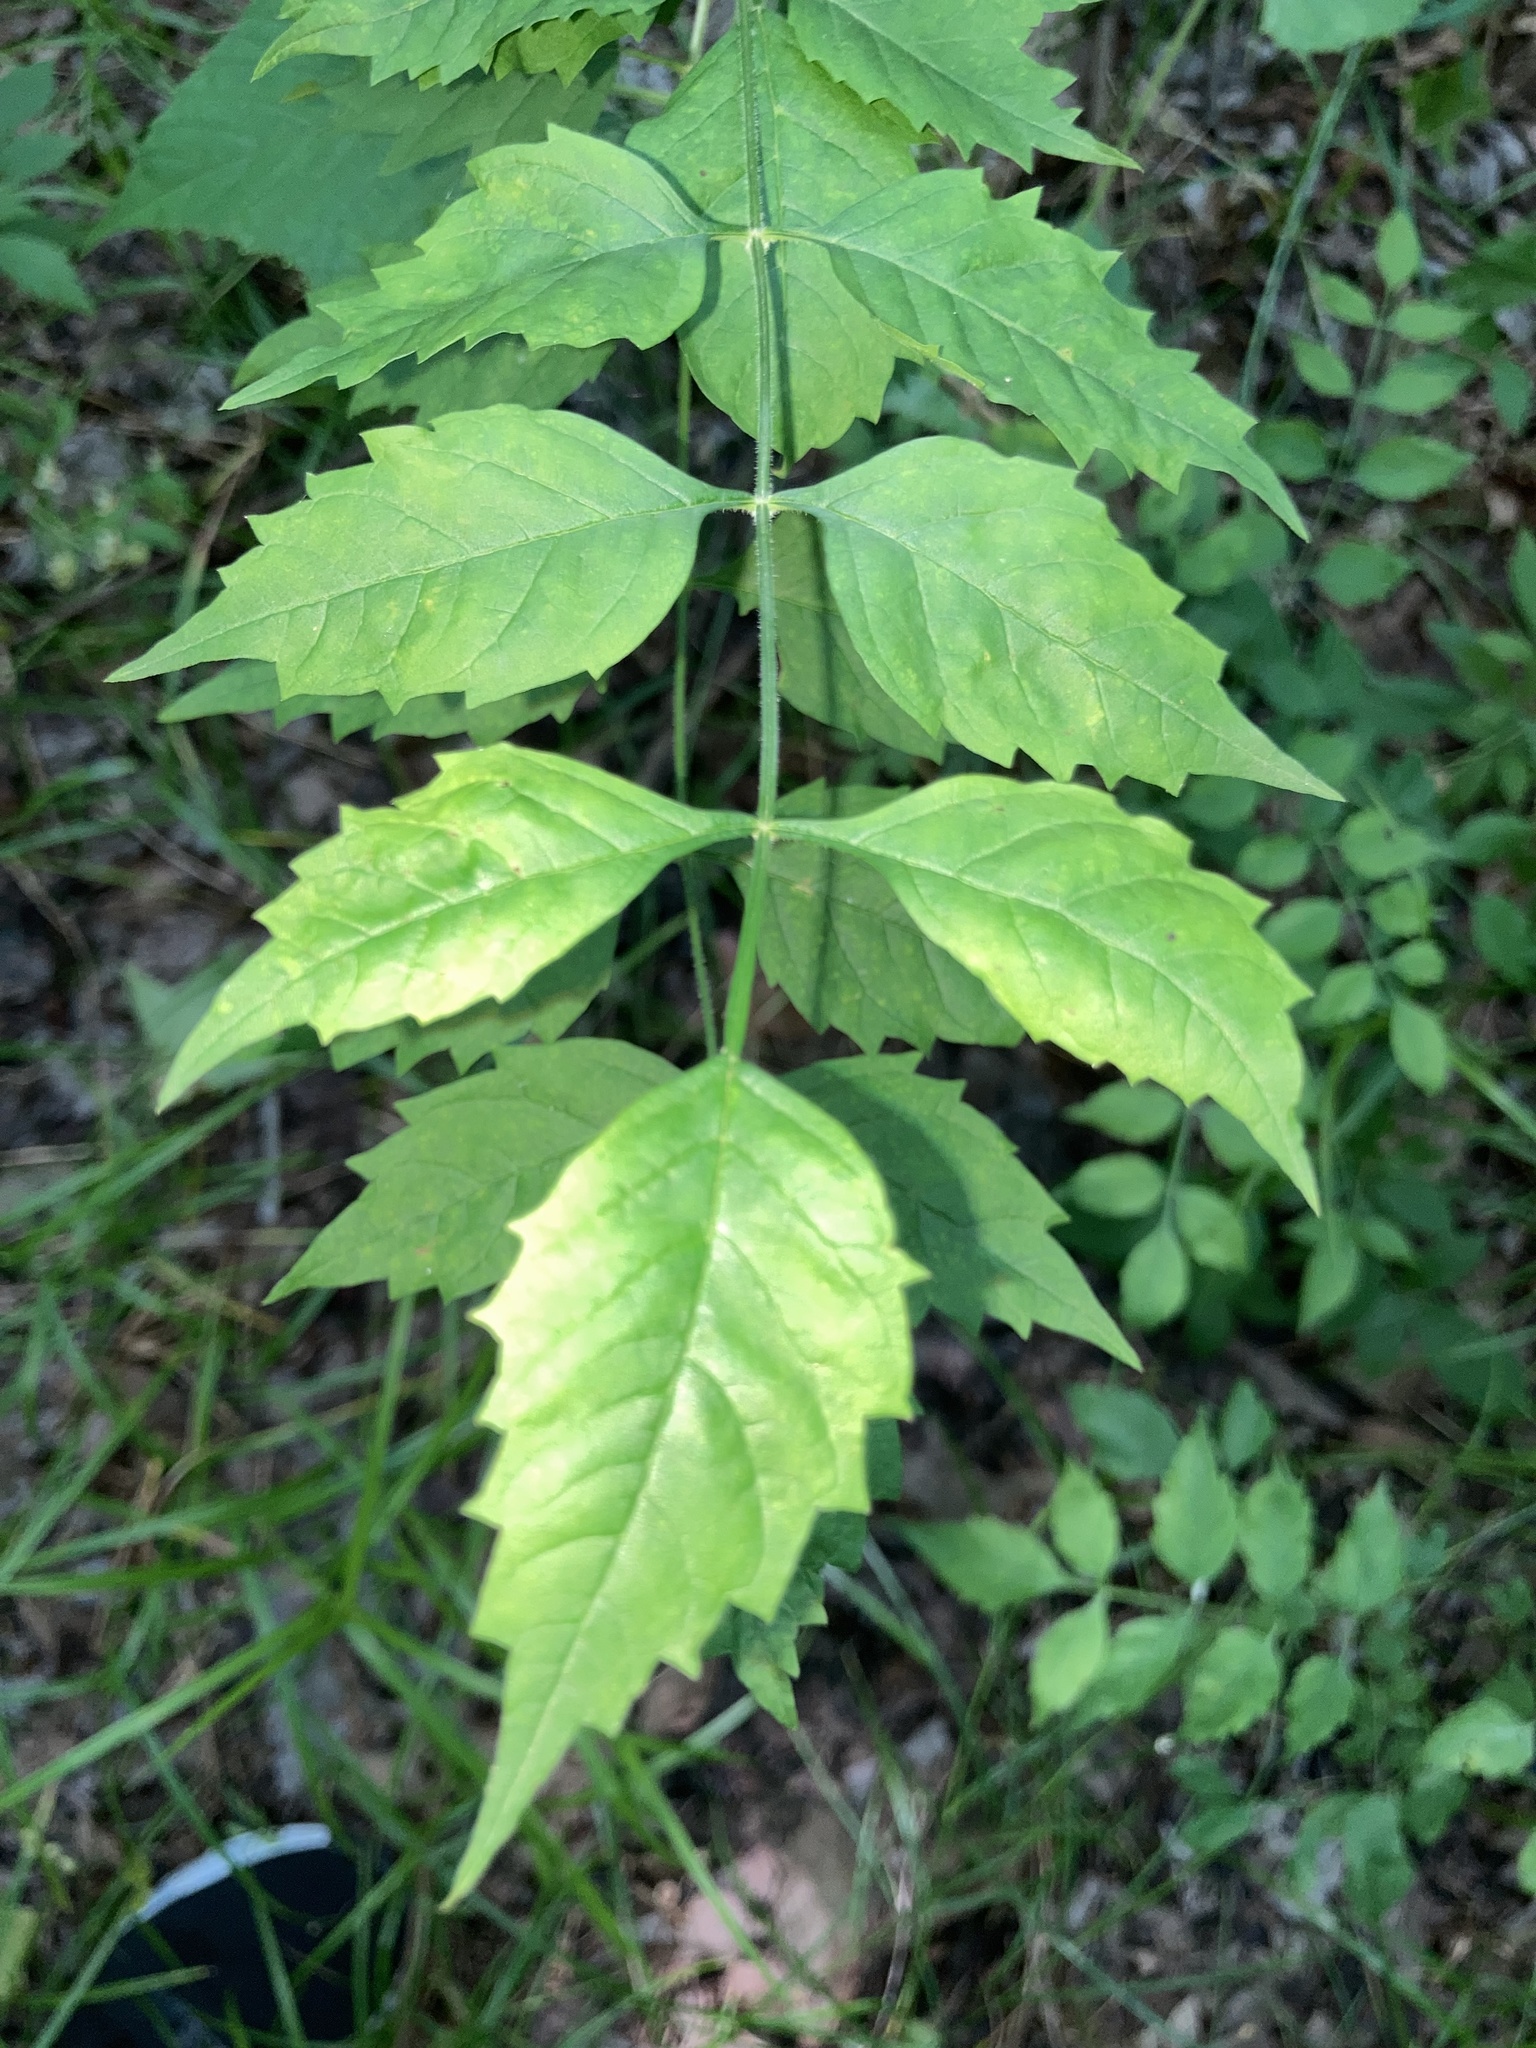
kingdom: Plantae
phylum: Tracheophyta
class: Magnoliopsida
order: Lamiales
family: Bignoniaceae
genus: Campsis
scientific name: Campsis radicans
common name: Trumpet-creeper
